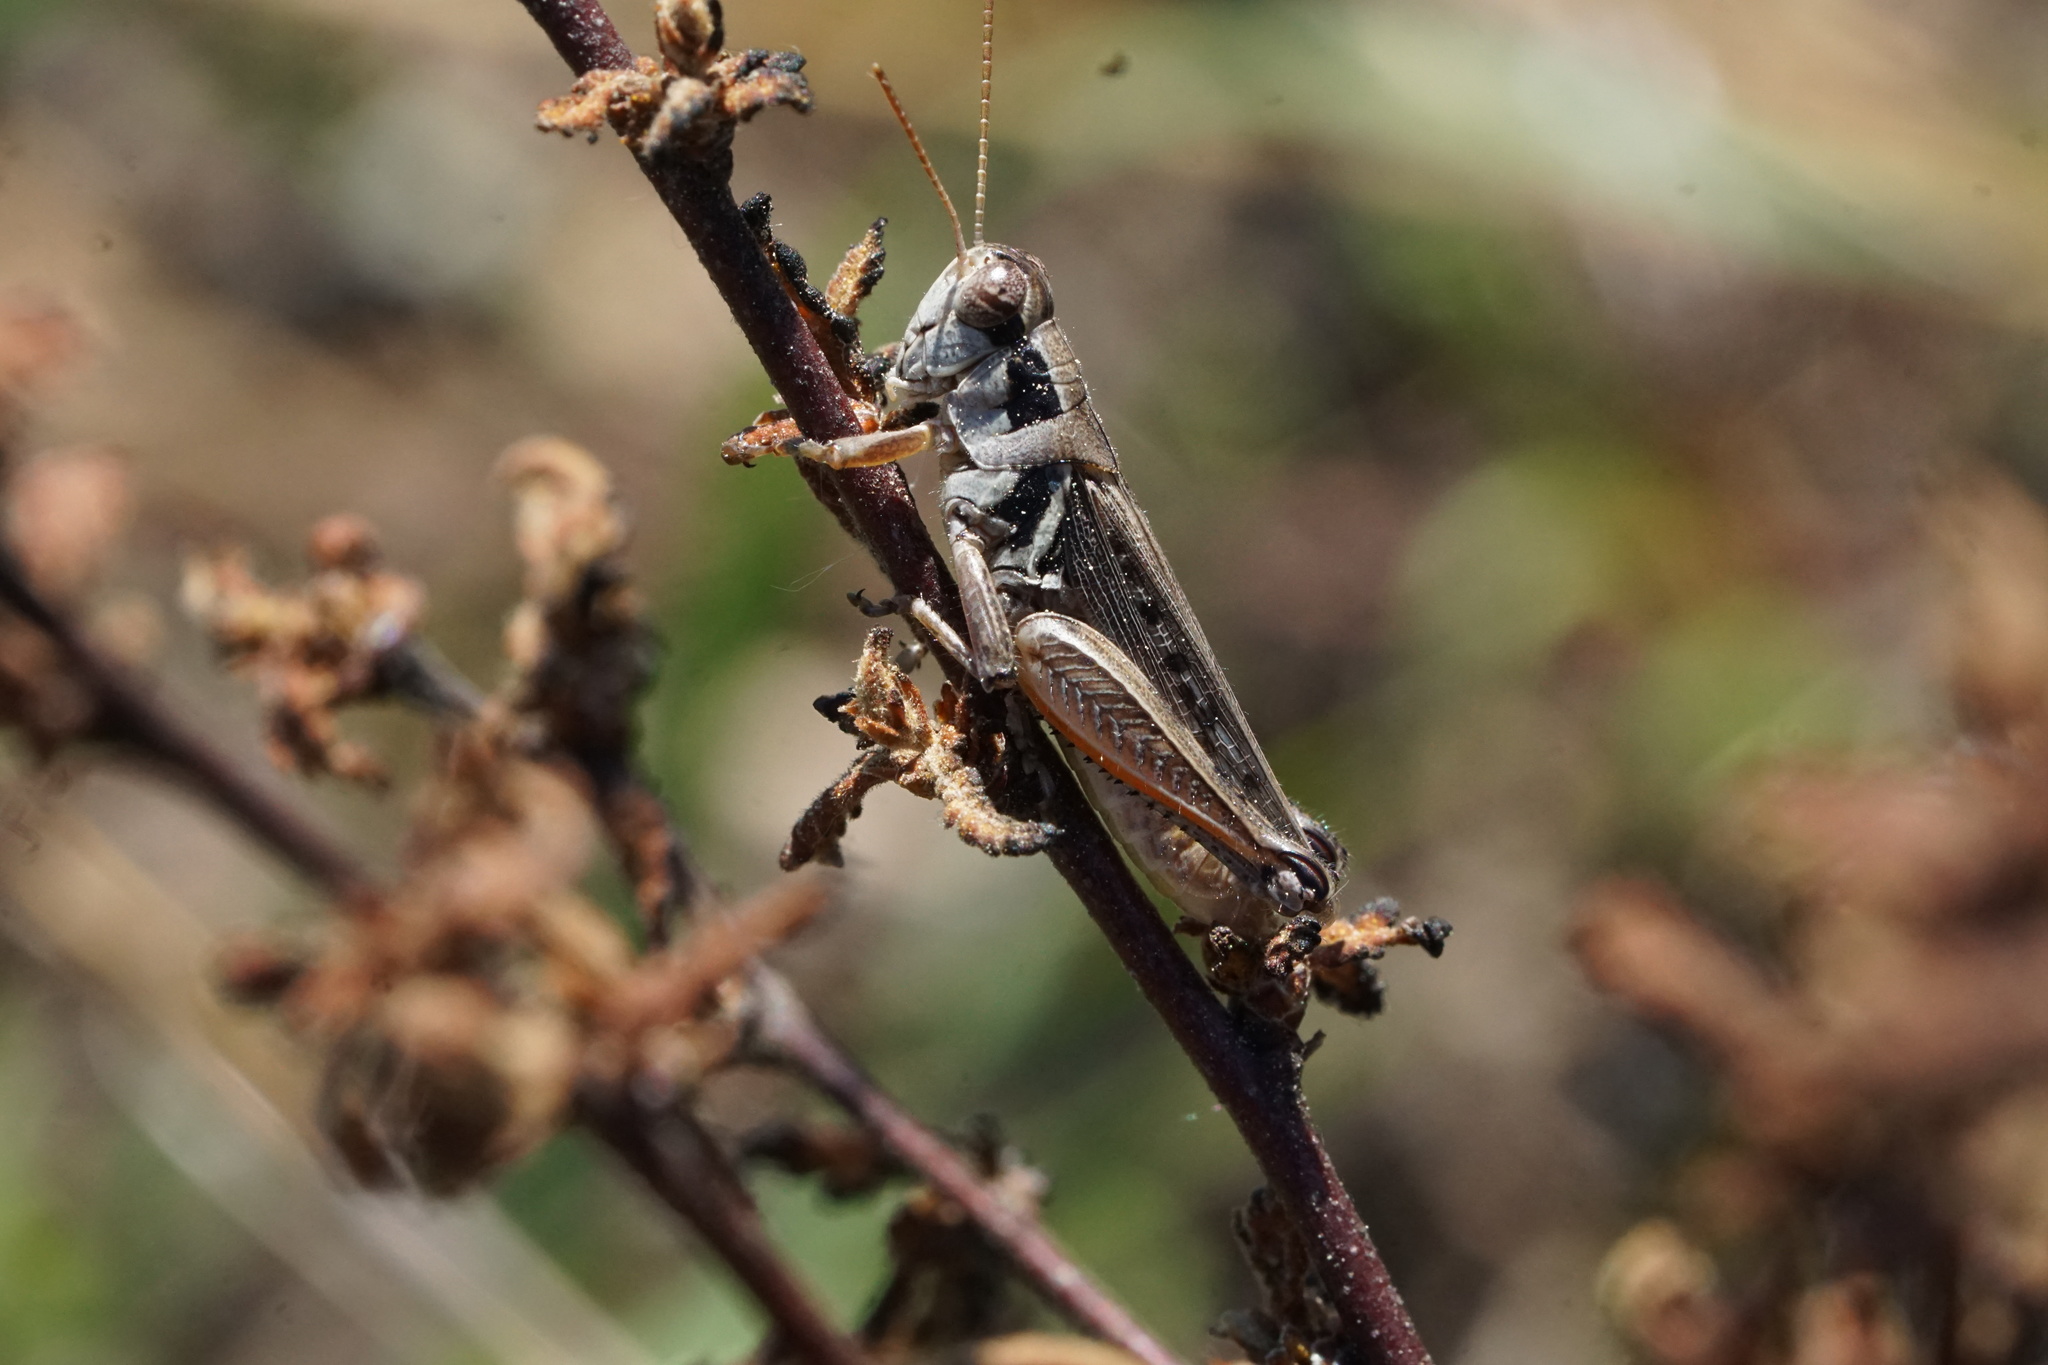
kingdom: Animalia
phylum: Arthropoda
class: Insecta
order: Orthoptera
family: Acrididae
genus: Melanoplus
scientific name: Melanoplus confusus
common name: Little pasture locust
